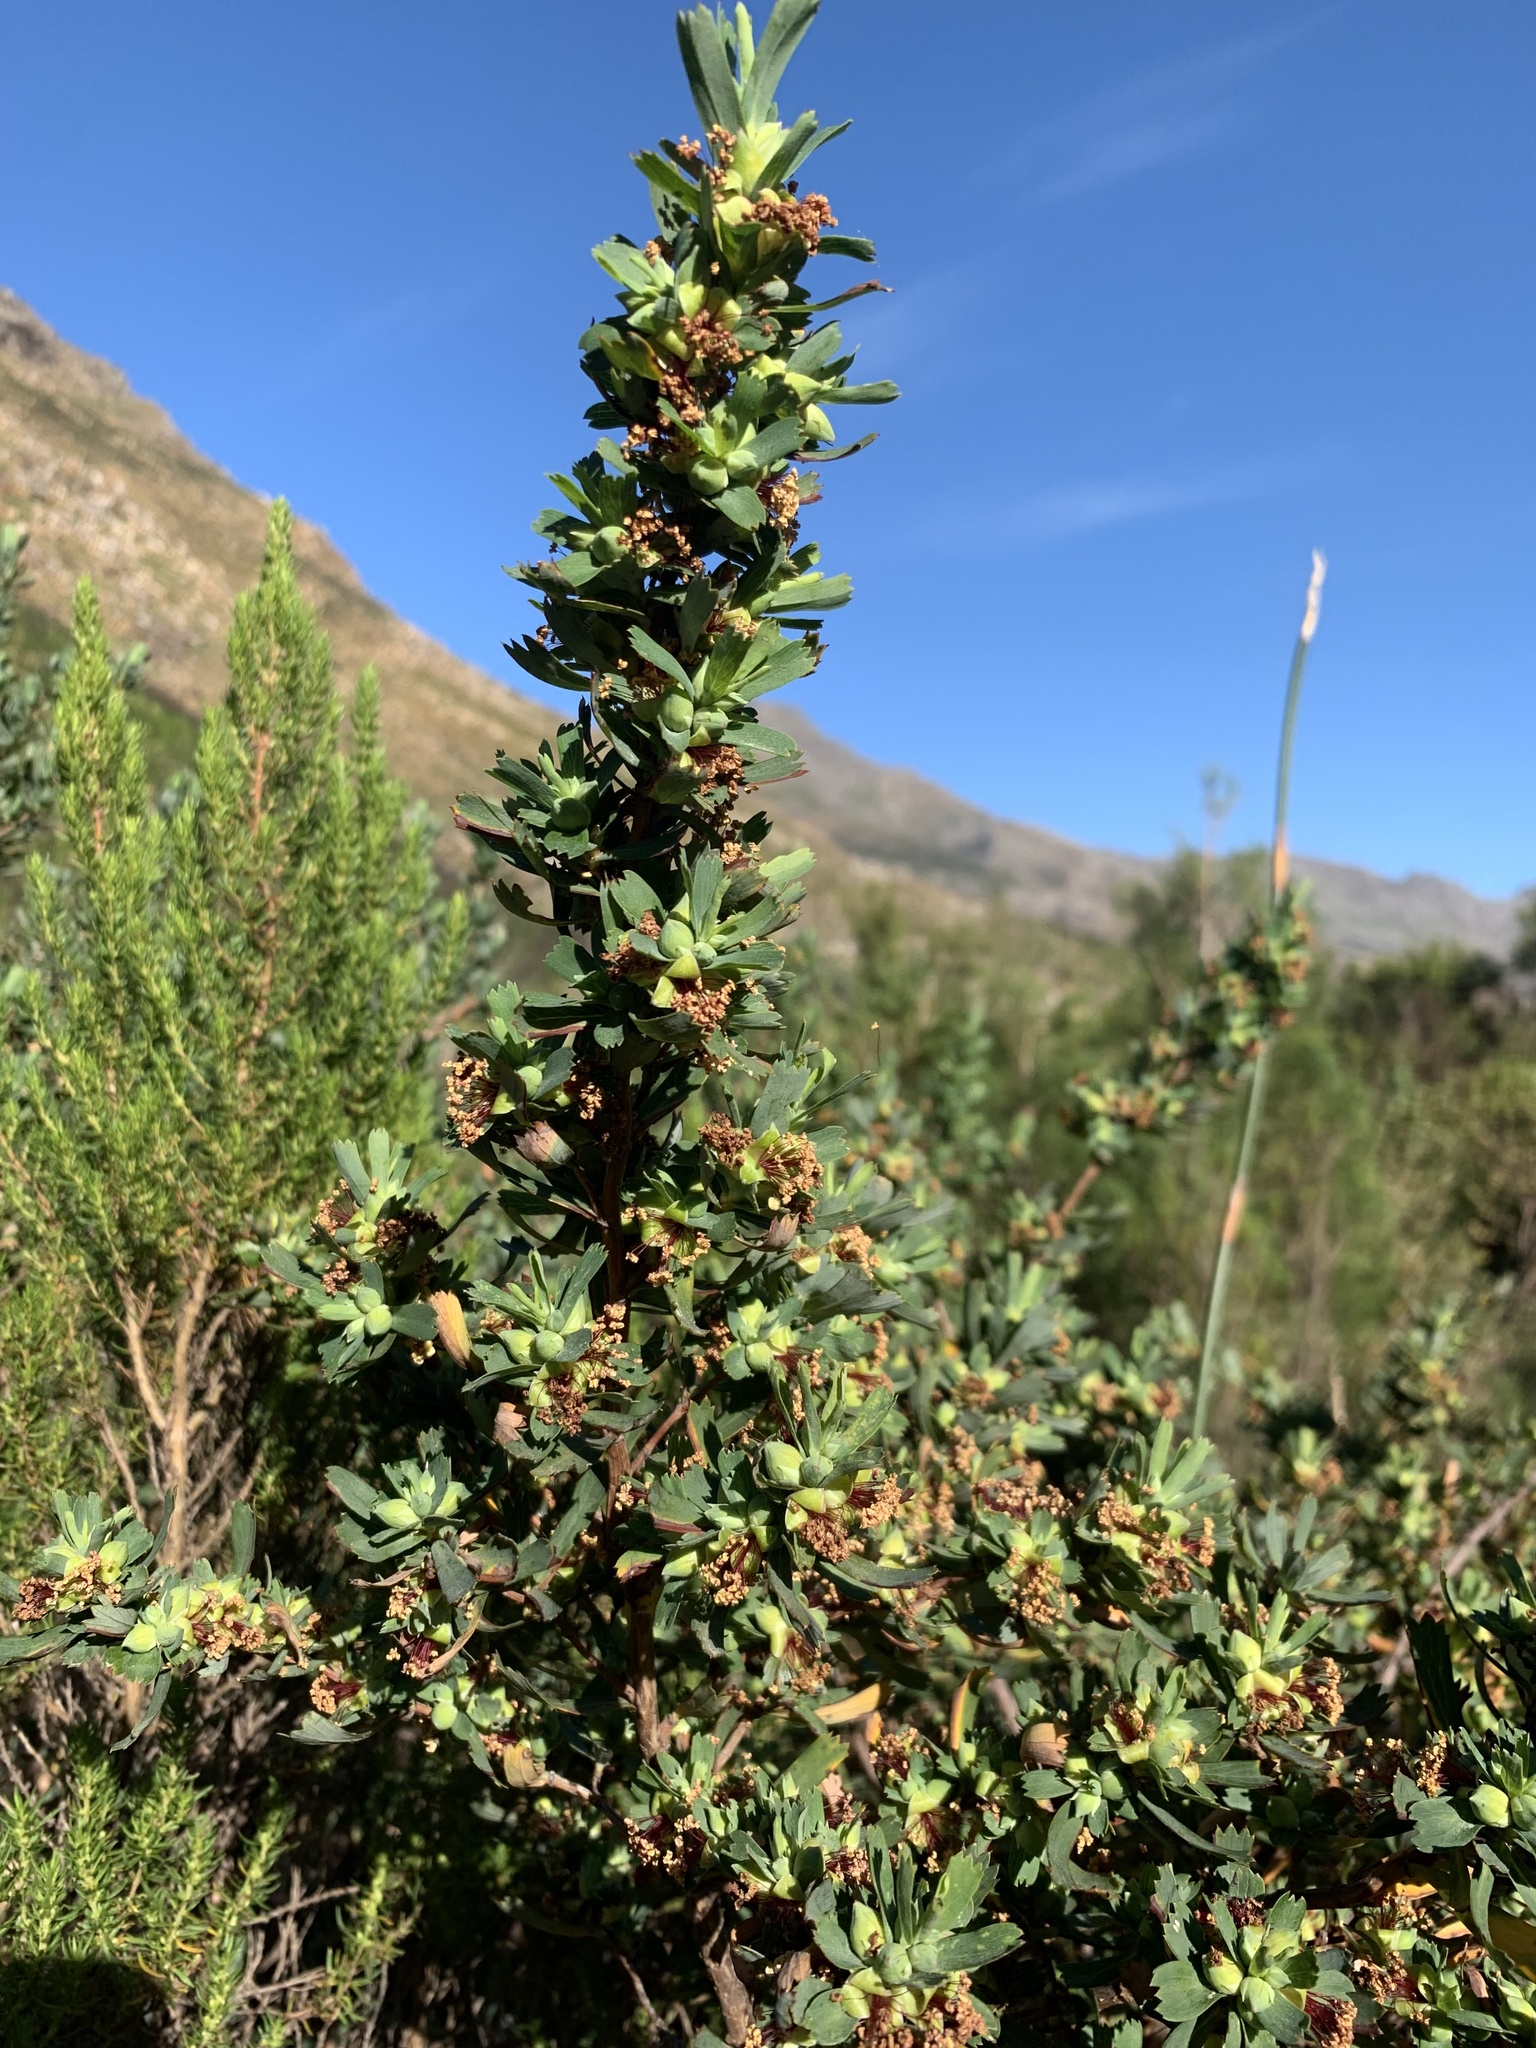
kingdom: Plantae
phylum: Tracheophyta
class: Magnoliopsida
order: Rosales
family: Rosaceae
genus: Cliffortia
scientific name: Cliffortia cuneata
